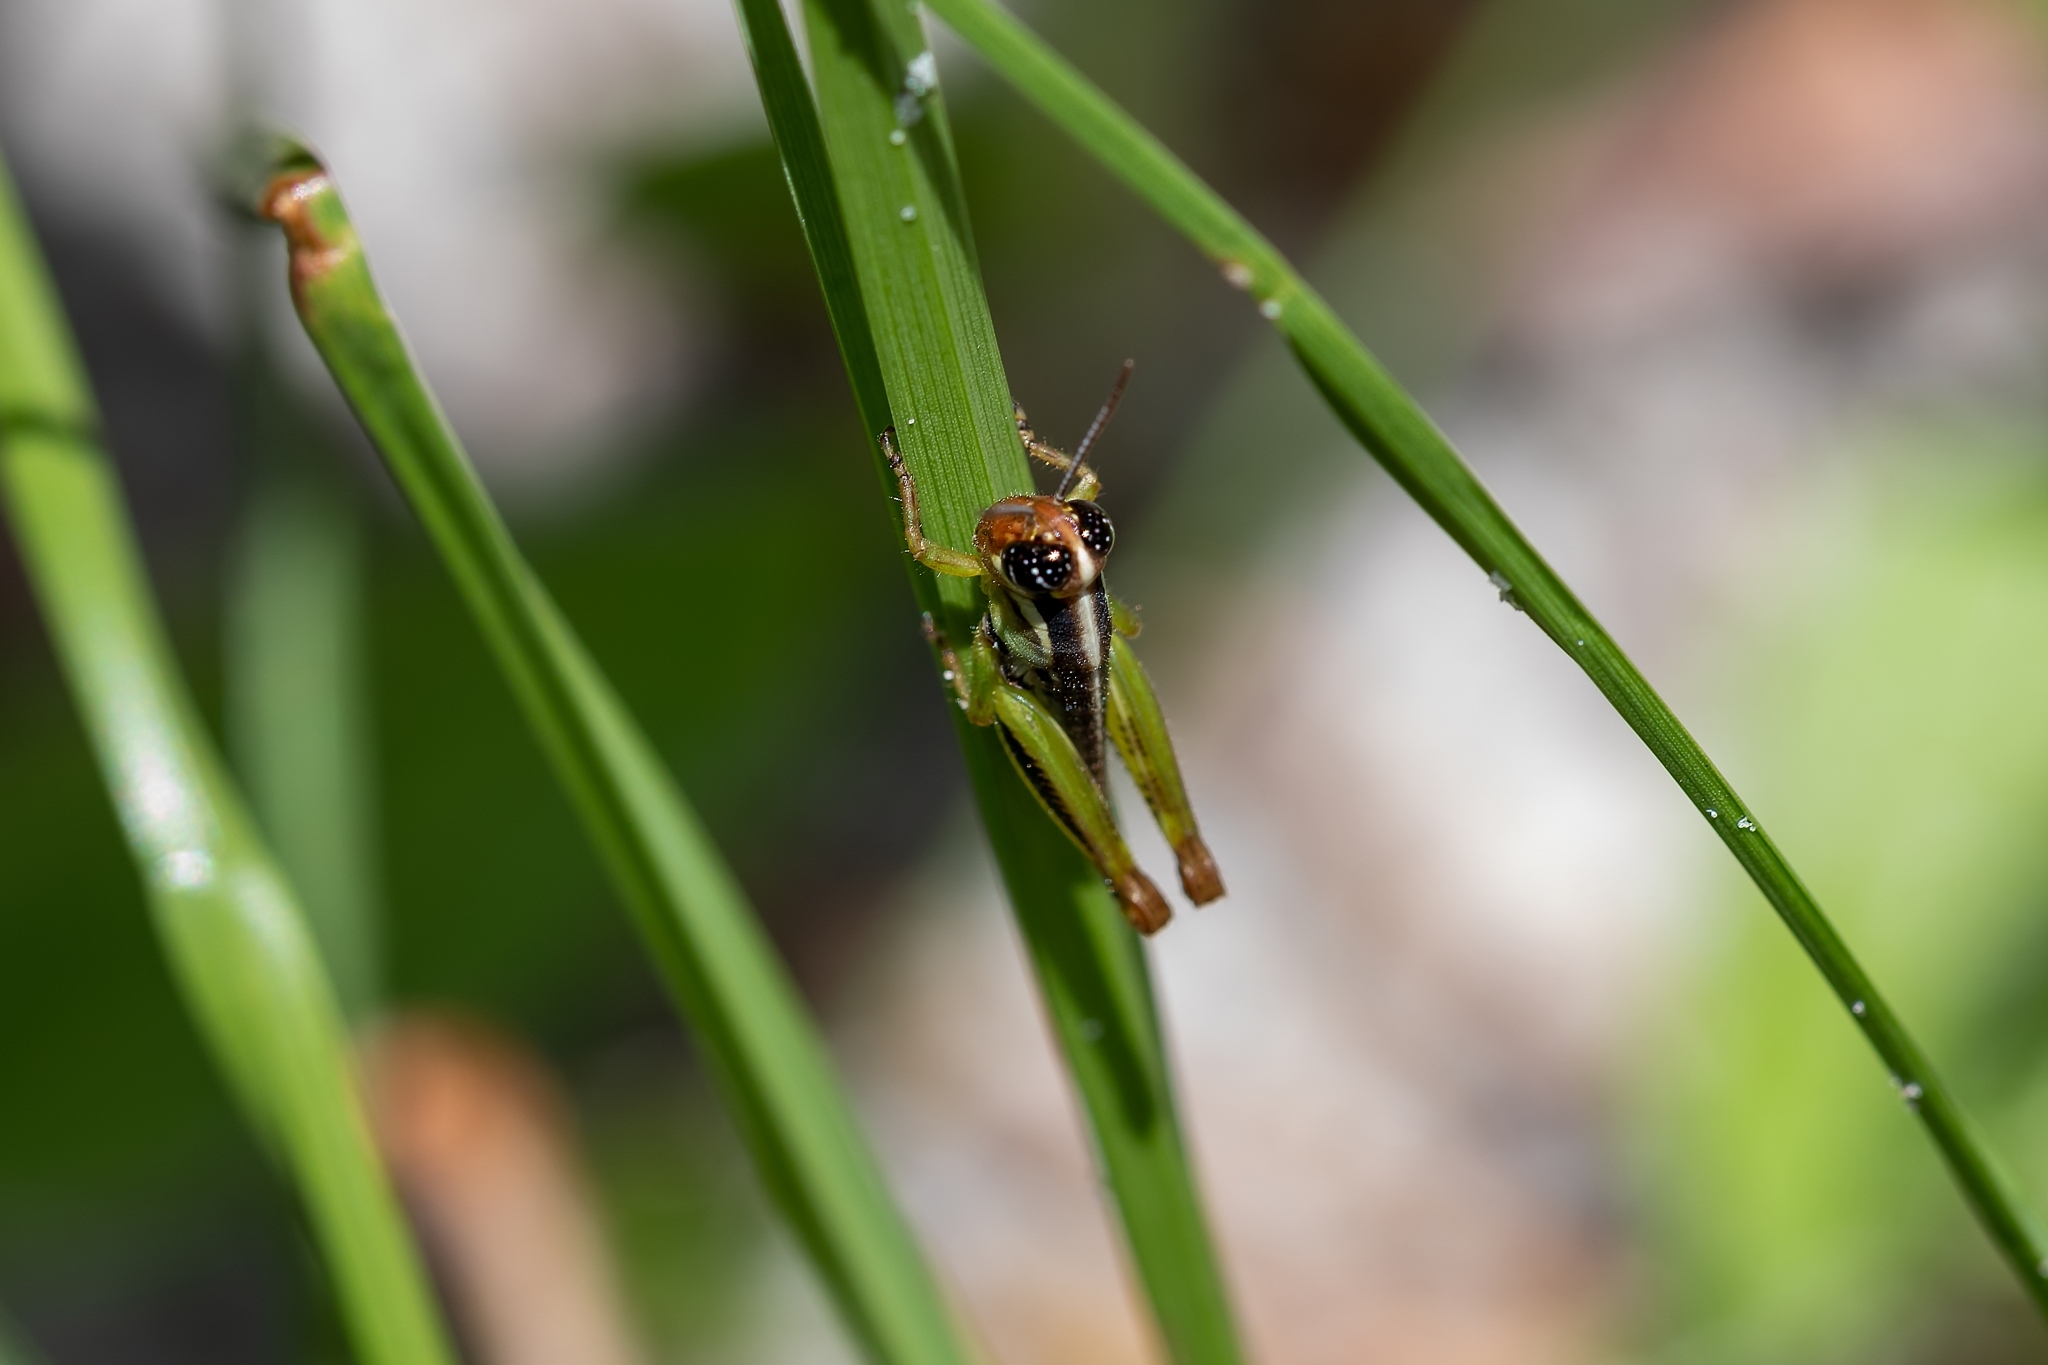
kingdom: Animalia
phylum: Arthropoda
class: Insecta
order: Orthoptera
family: Acrididae
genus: Melanoplus
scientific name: Melanoplus keeleri
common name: Keeler grasshopper
